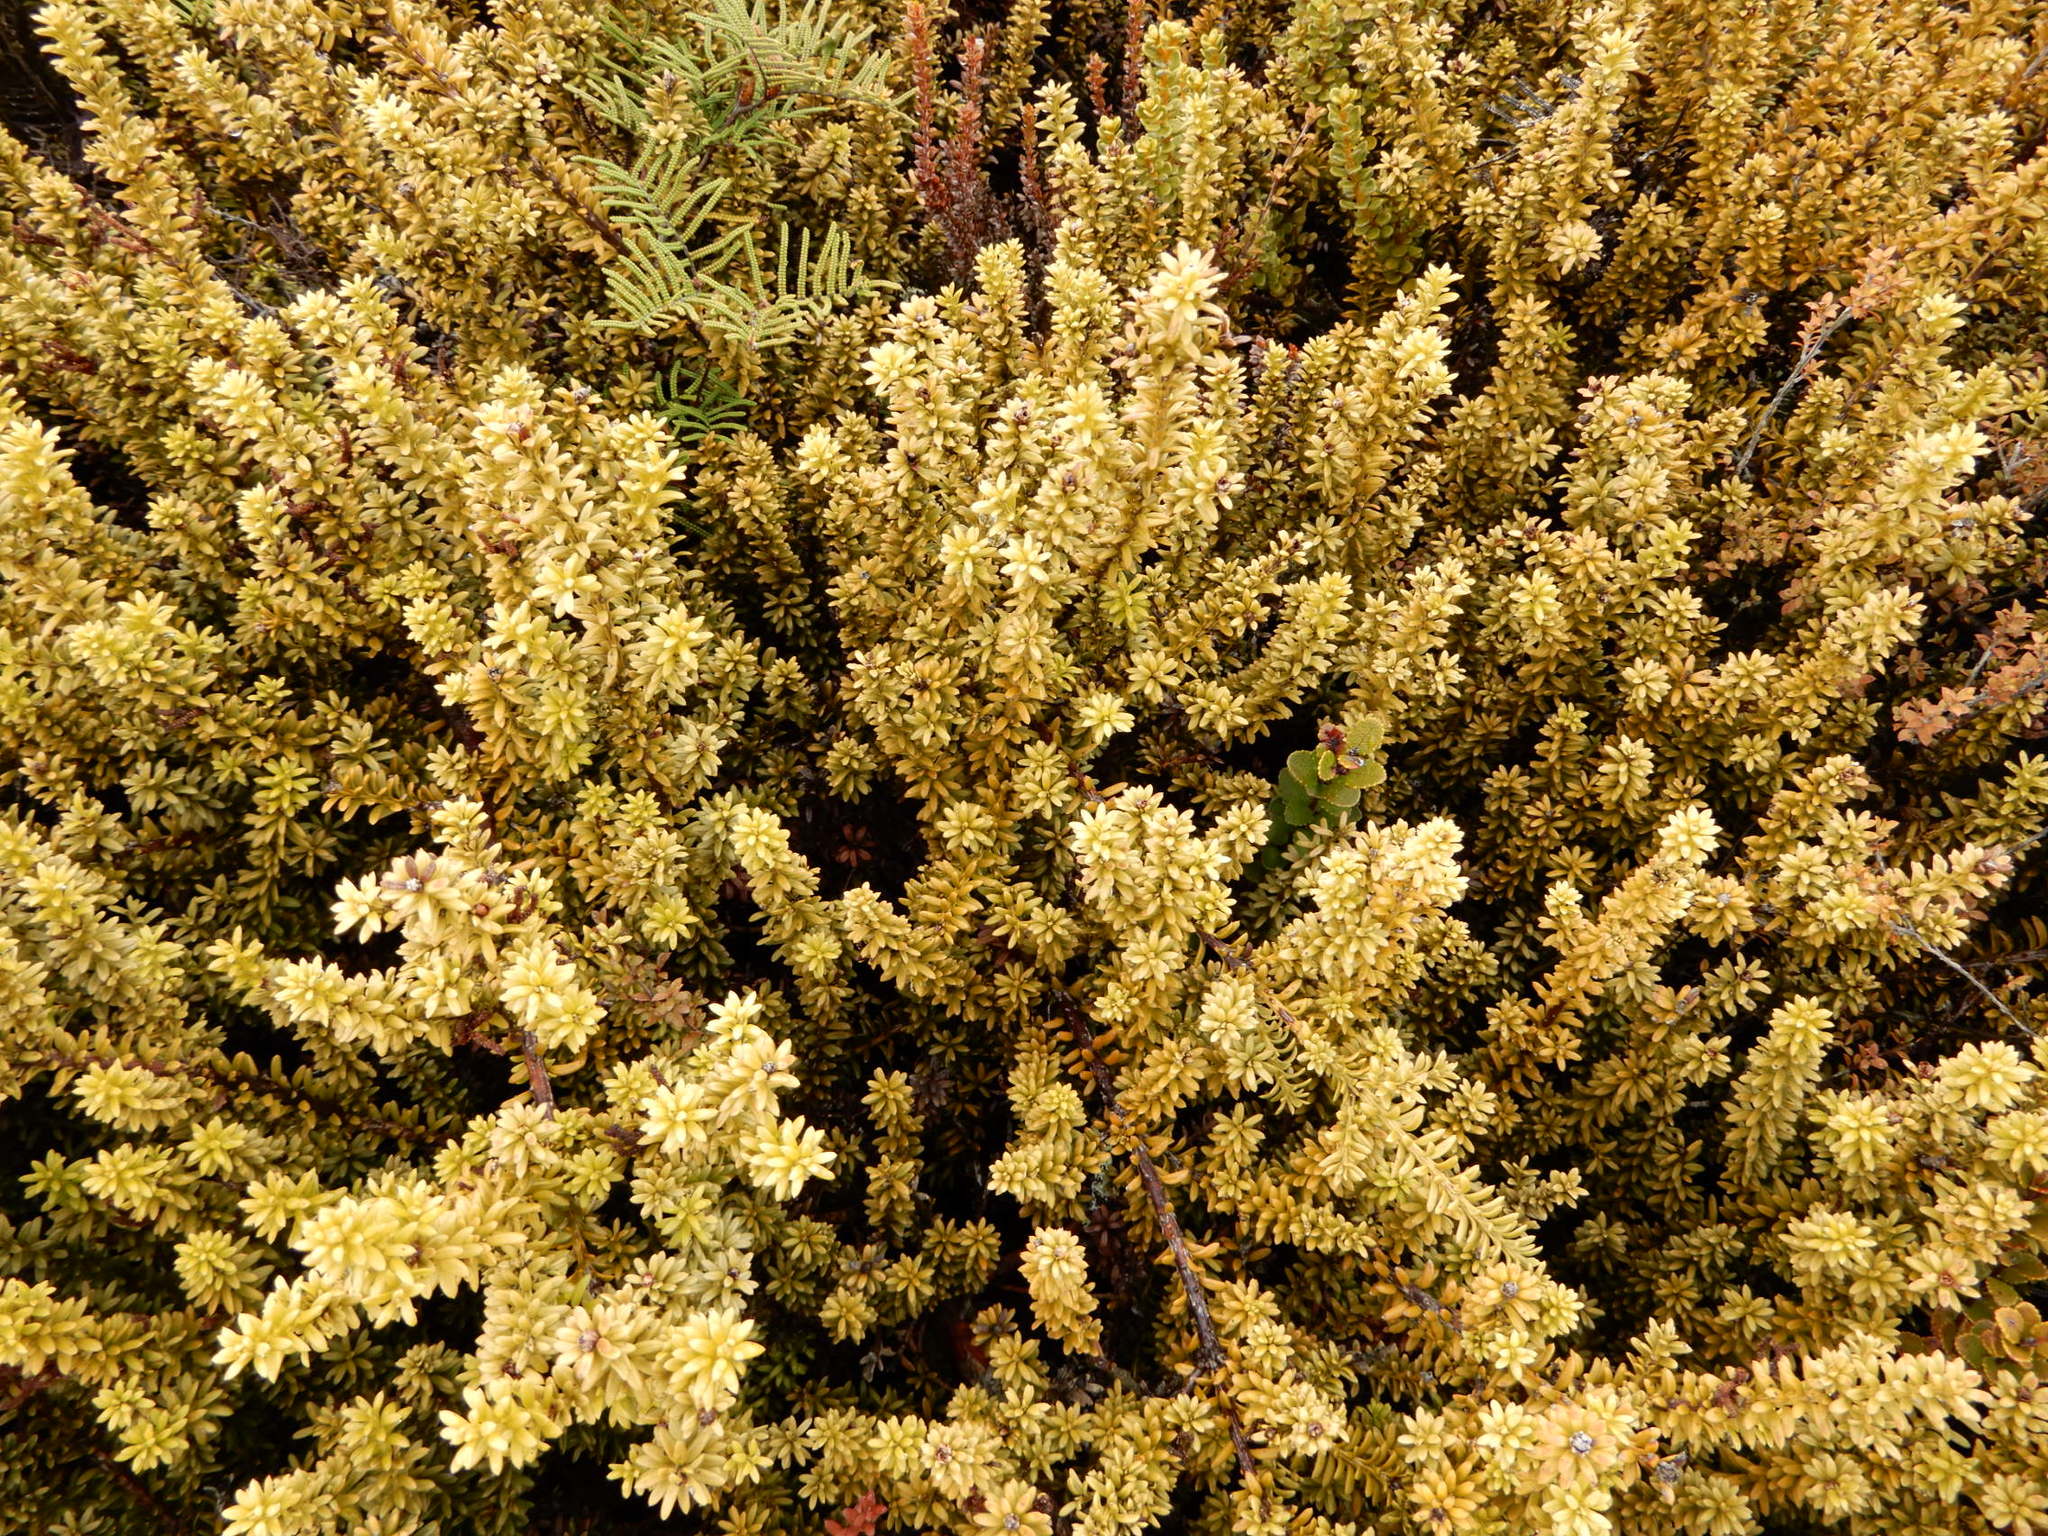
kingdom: Plantae
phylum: Tracheophyta
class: Pinopsida
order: Pinales
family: Podocarpaceae
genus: Podocarpus
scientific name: Podocarpus nivalis
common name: Alpine totara
